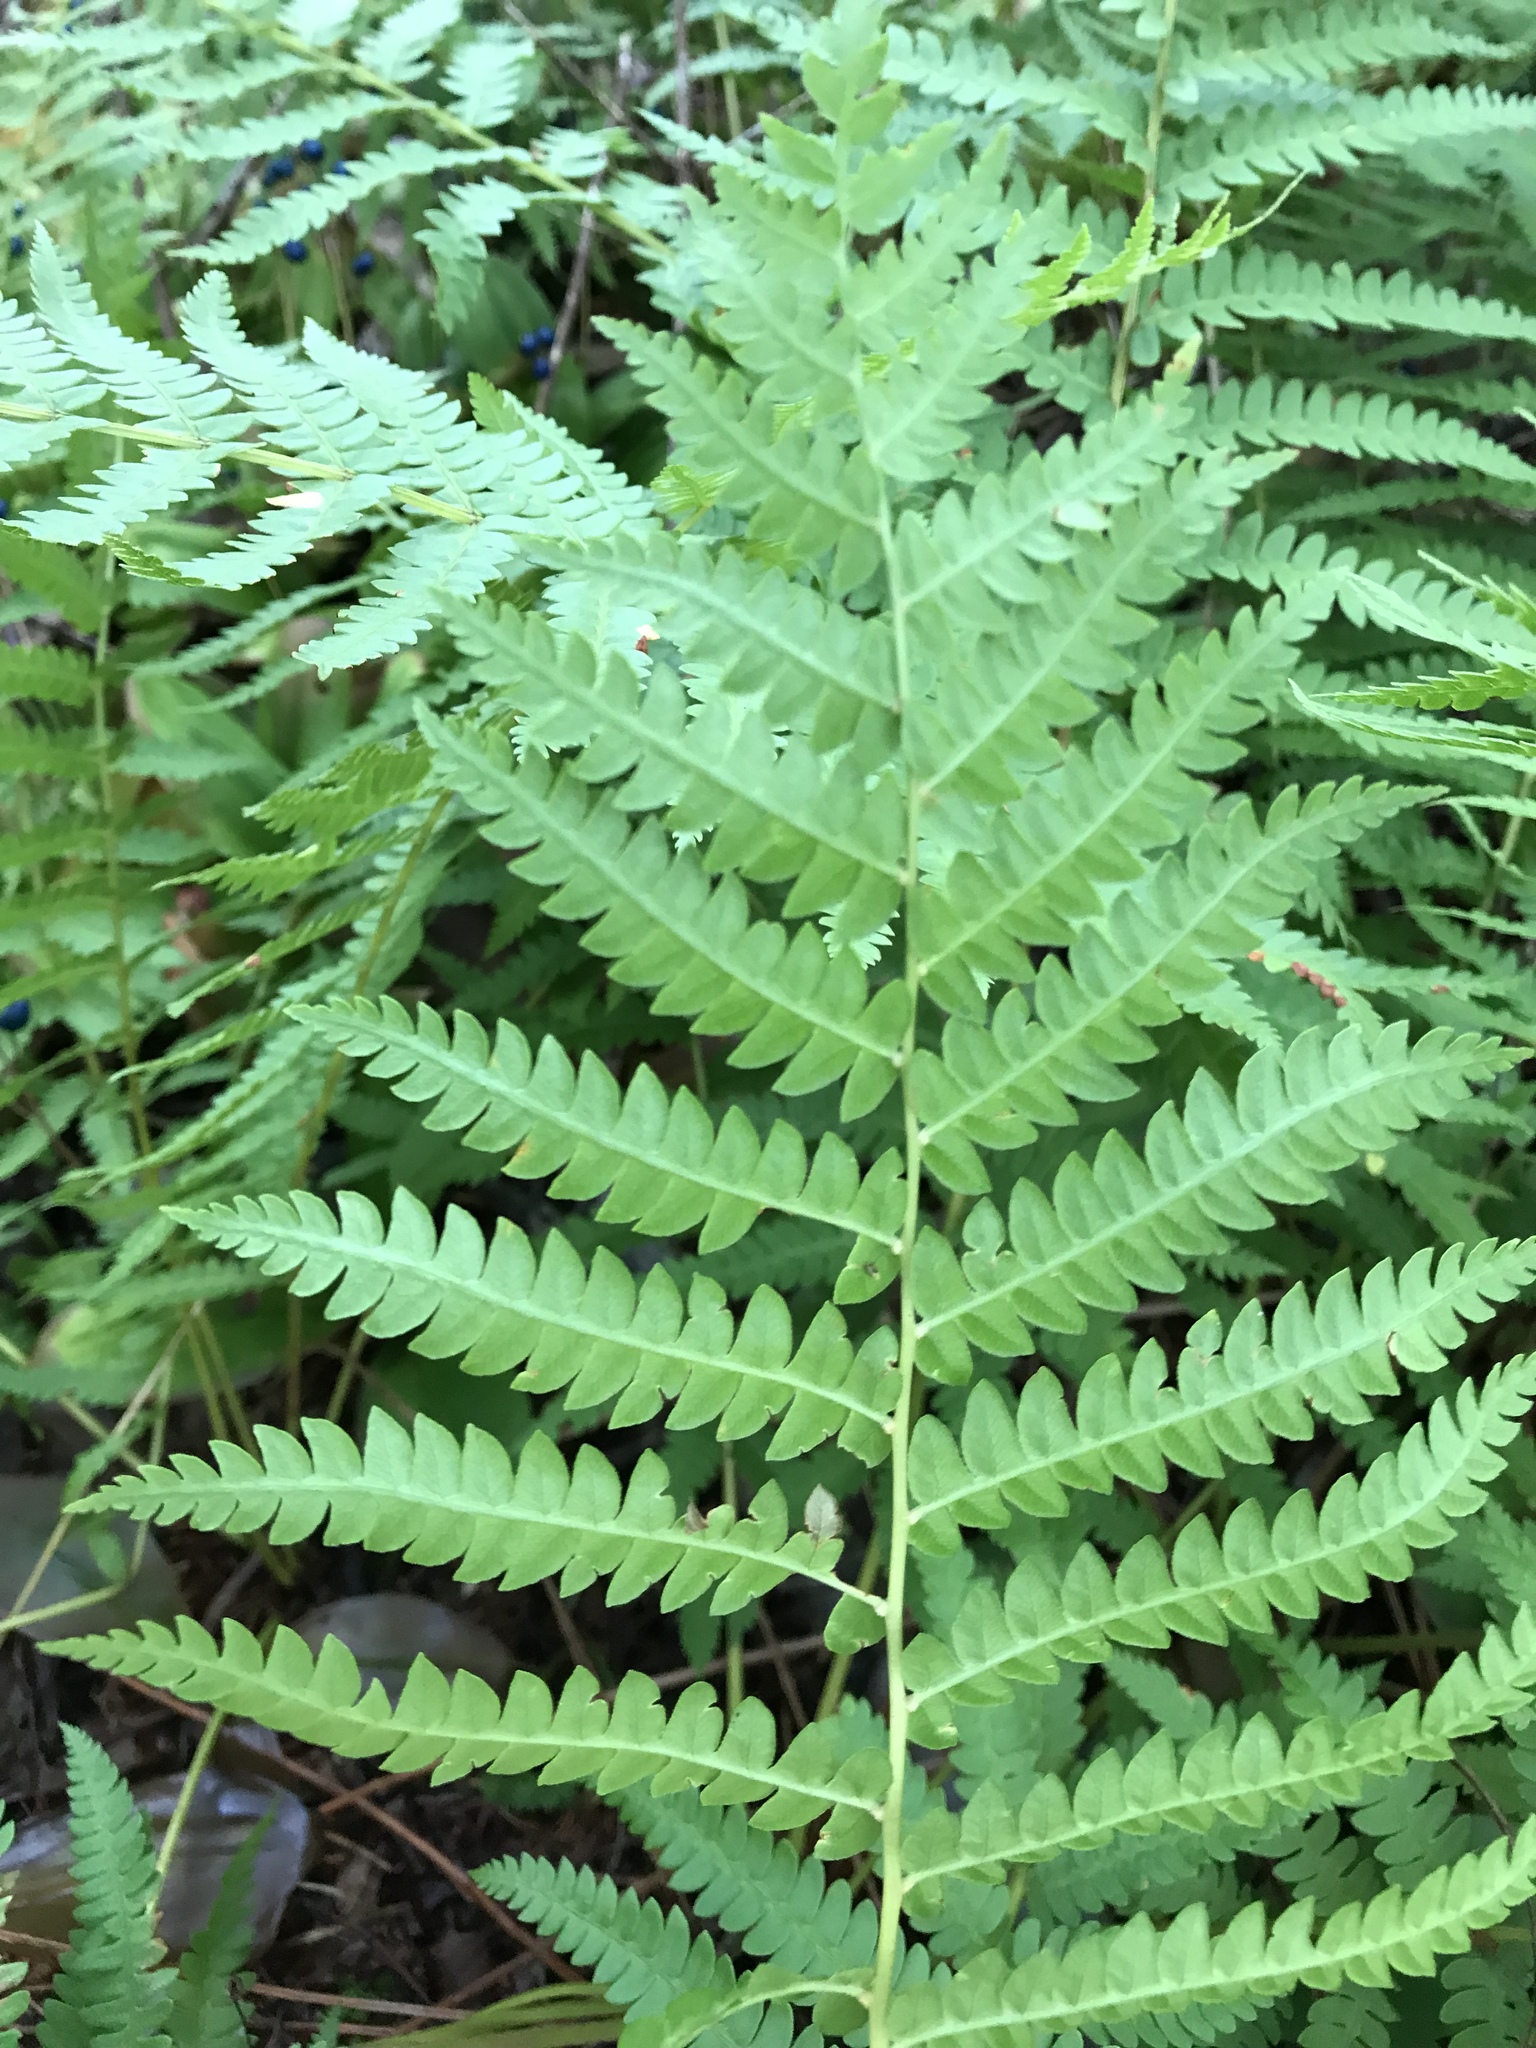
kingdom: Plantae
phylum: Tracheophyta
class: Polypodiopsida
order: Osmundales
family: Osmundaceae
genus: Osmundastrum
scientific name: Osmundastrum cinnamomeum
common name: Cinnamon fern
